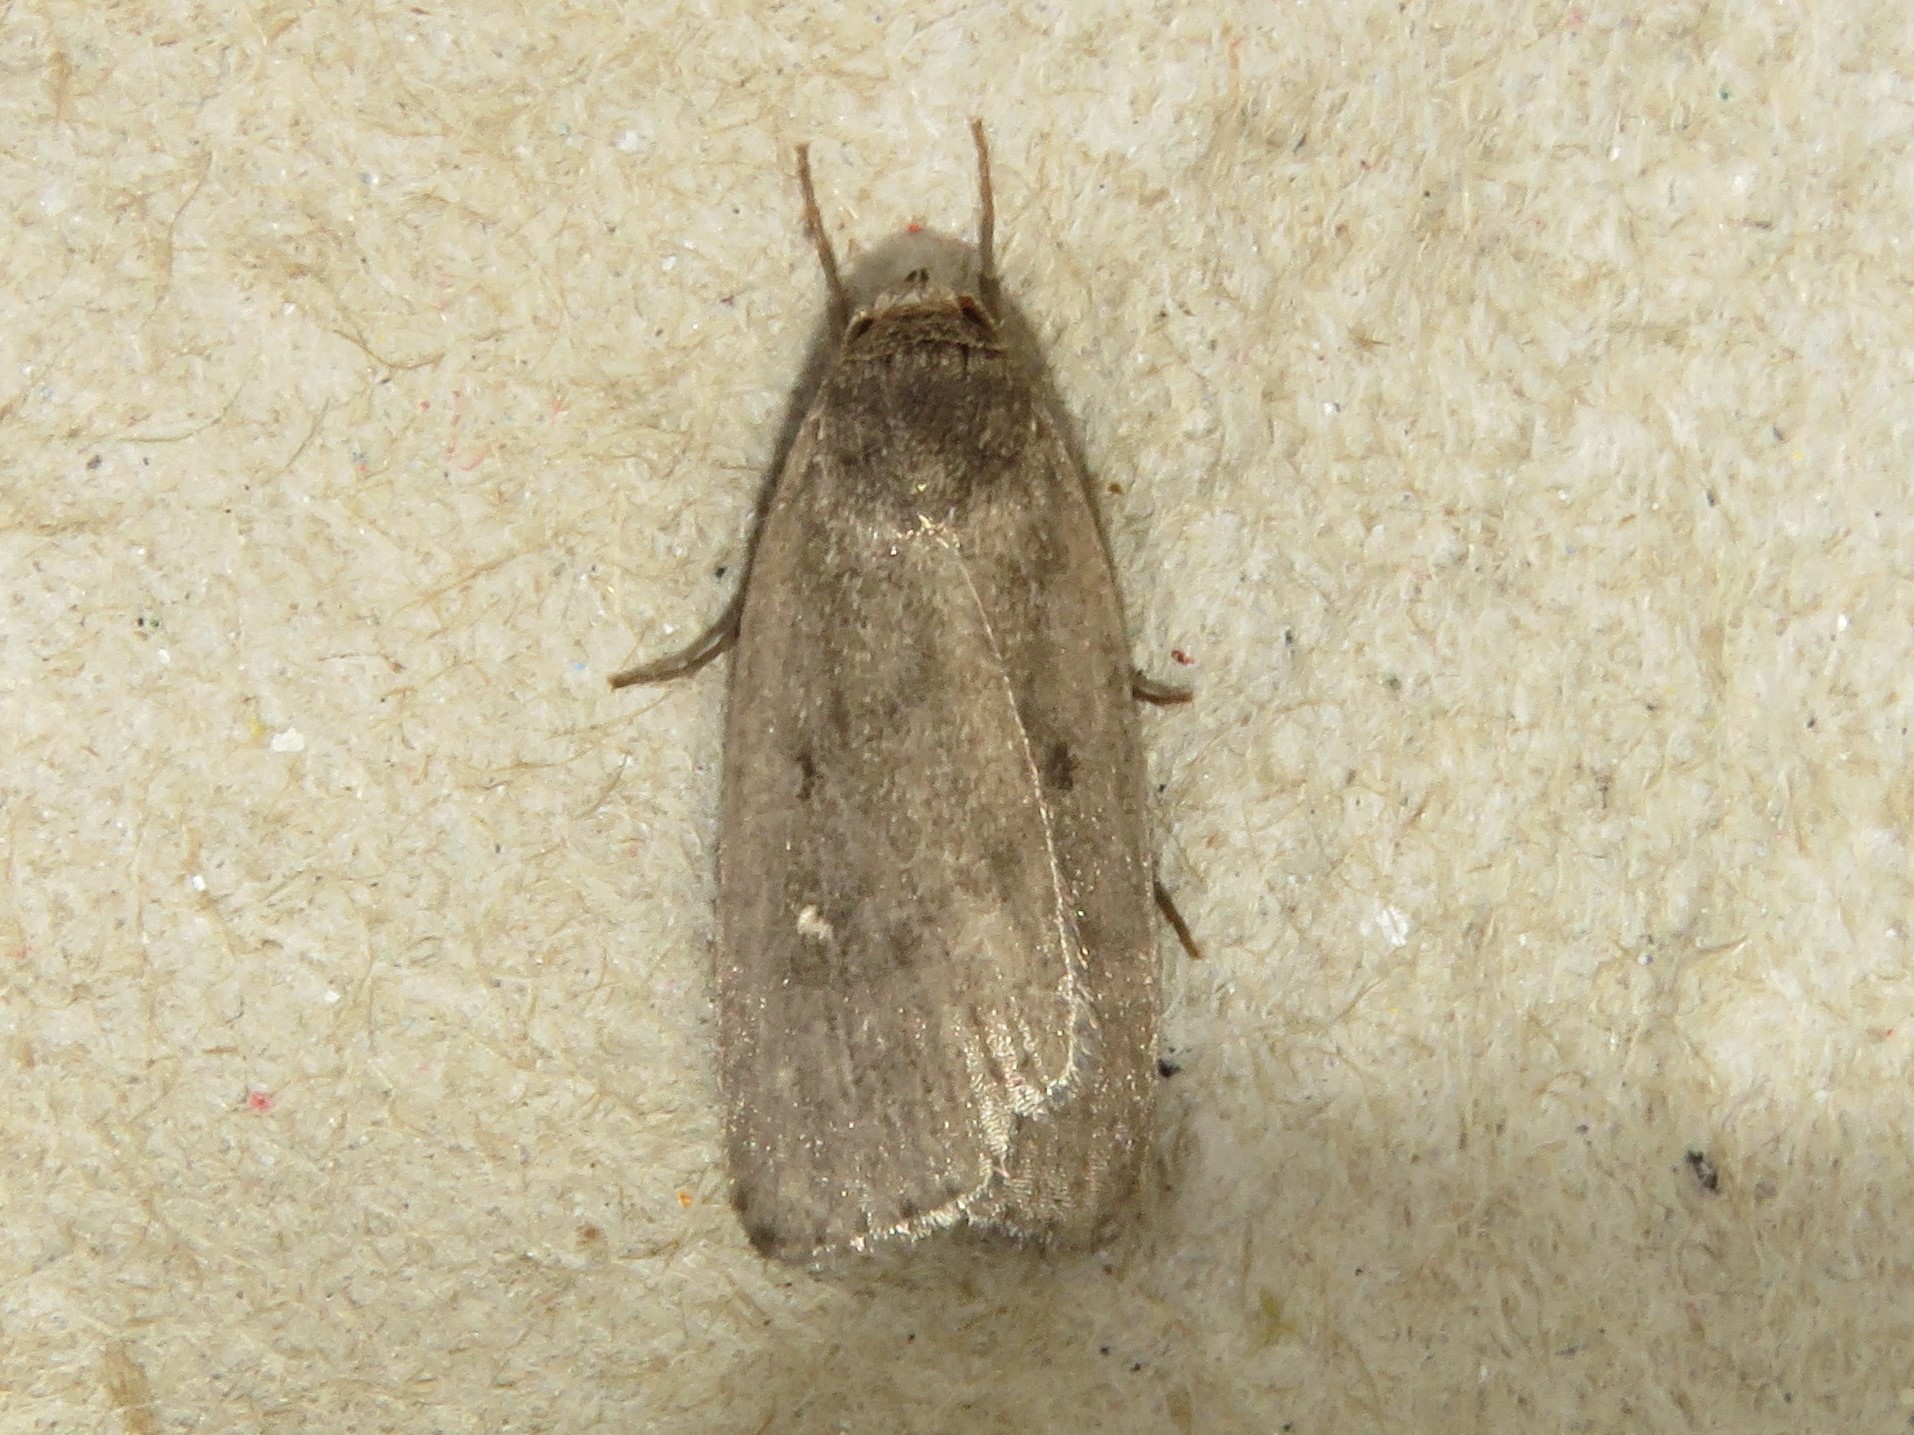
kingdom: Animalia
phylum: Arthropoda
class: Insecta
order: Lepidoptera
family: Noctuidae
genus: Proxenus
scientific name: Proxenus miranda
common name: Miranda moth
